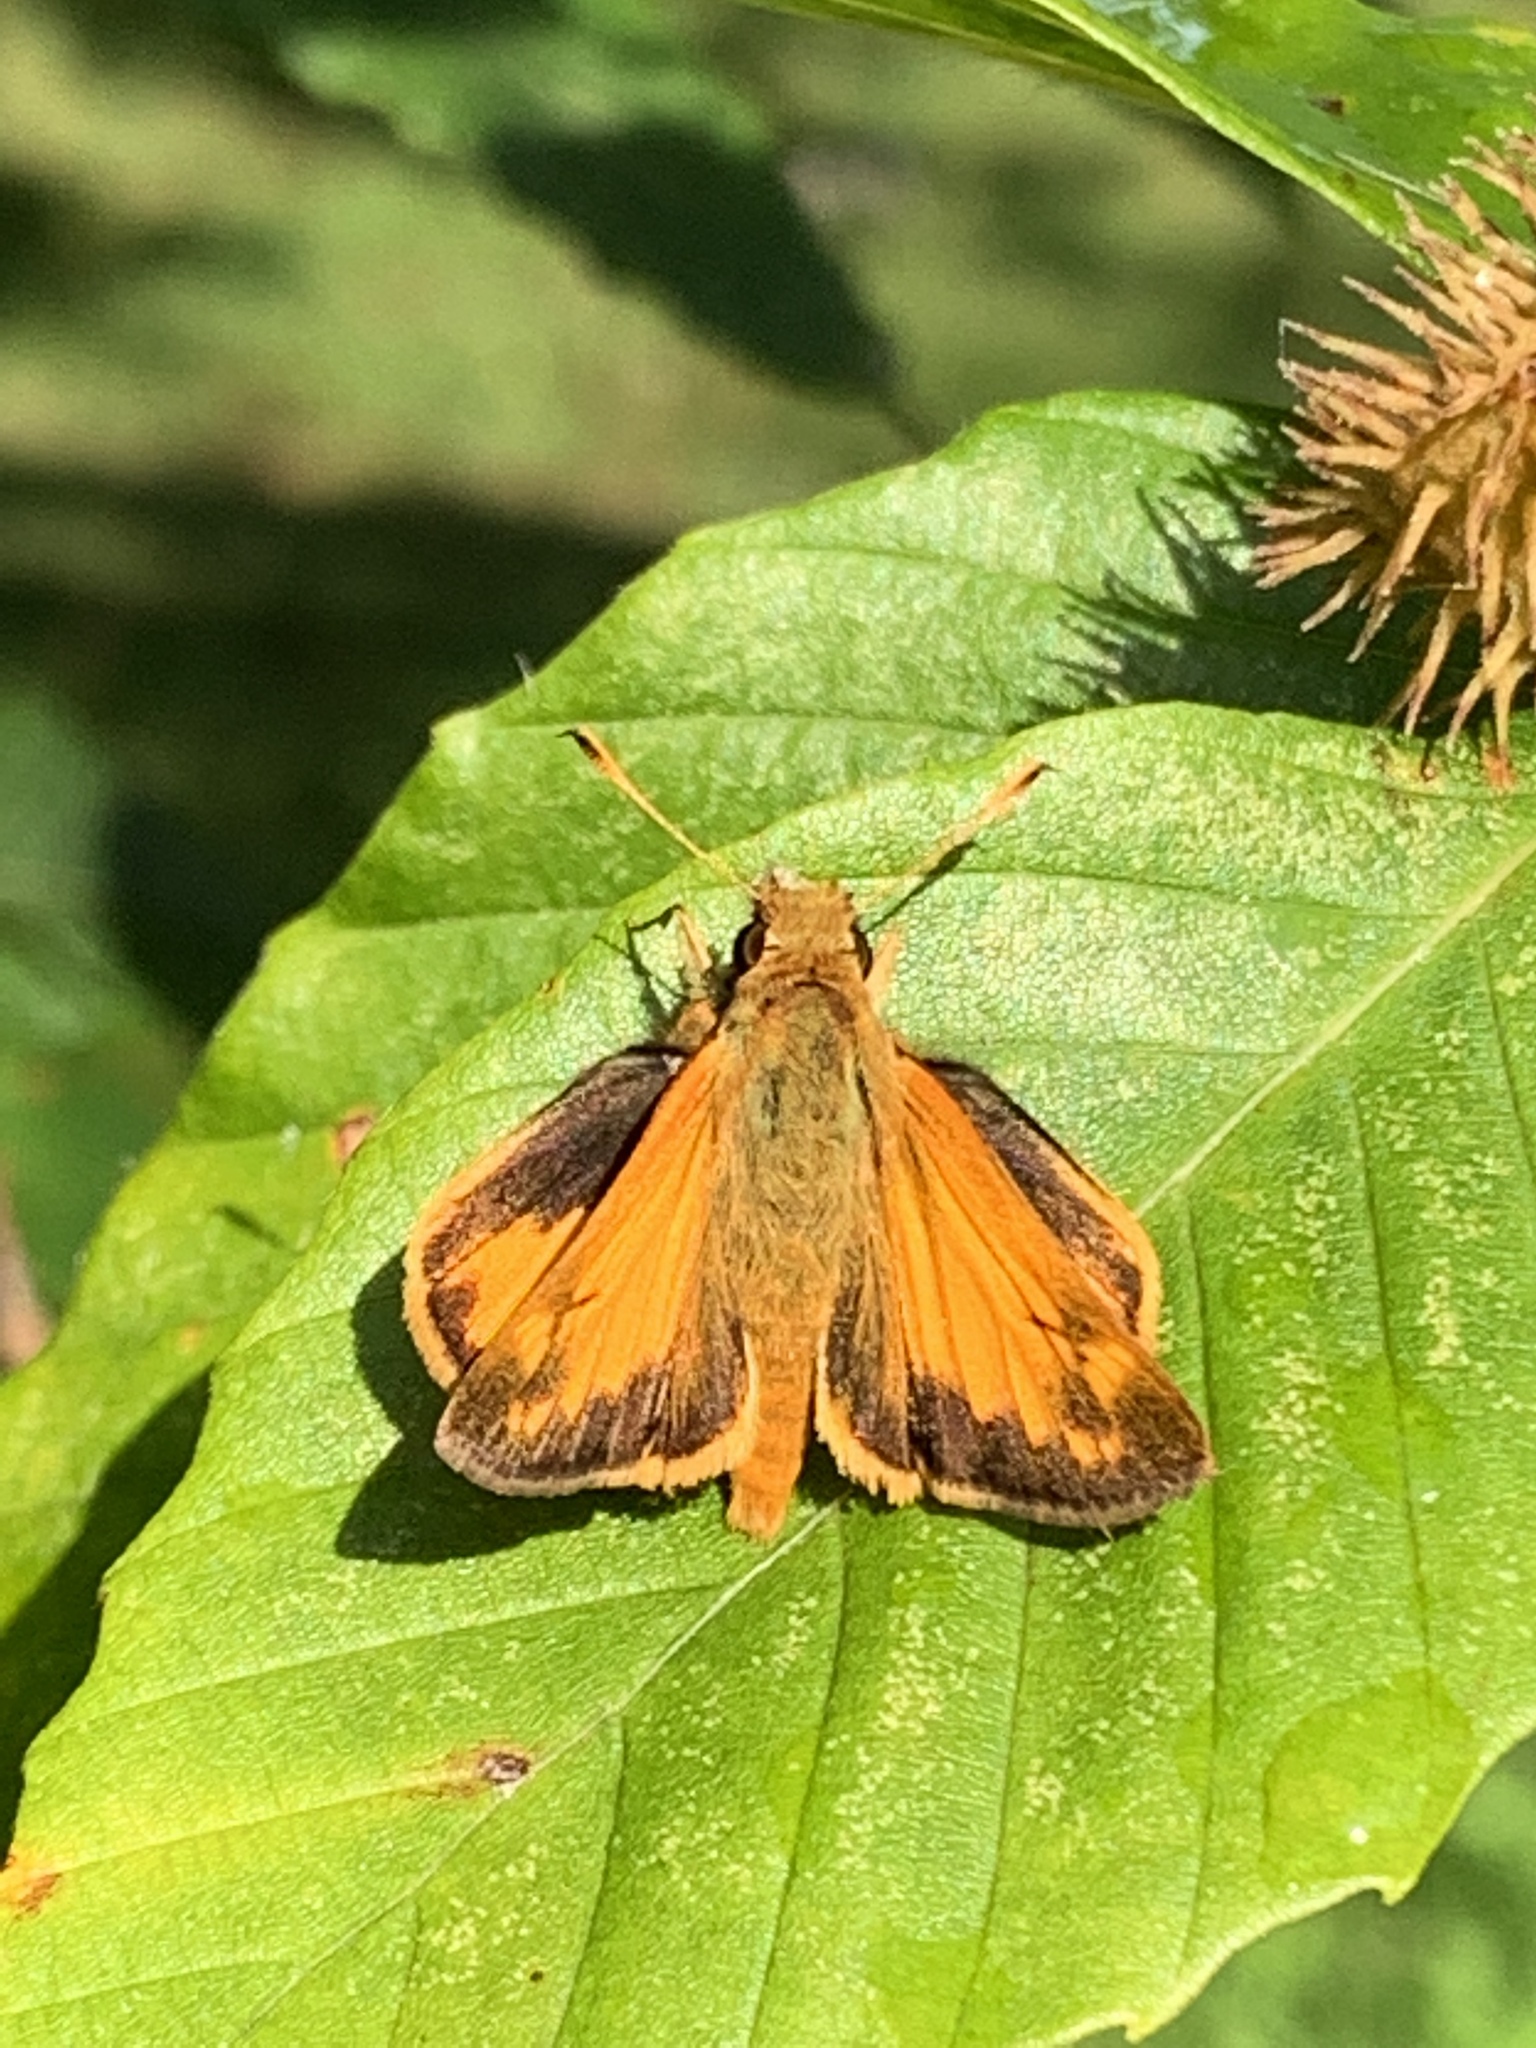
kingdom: Animalia
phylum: Arthropoda
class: Insecta
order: Lepidoptera
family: Hesperiidae
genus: Lon
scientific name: Lon zabulon
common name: Zabulon skipper
